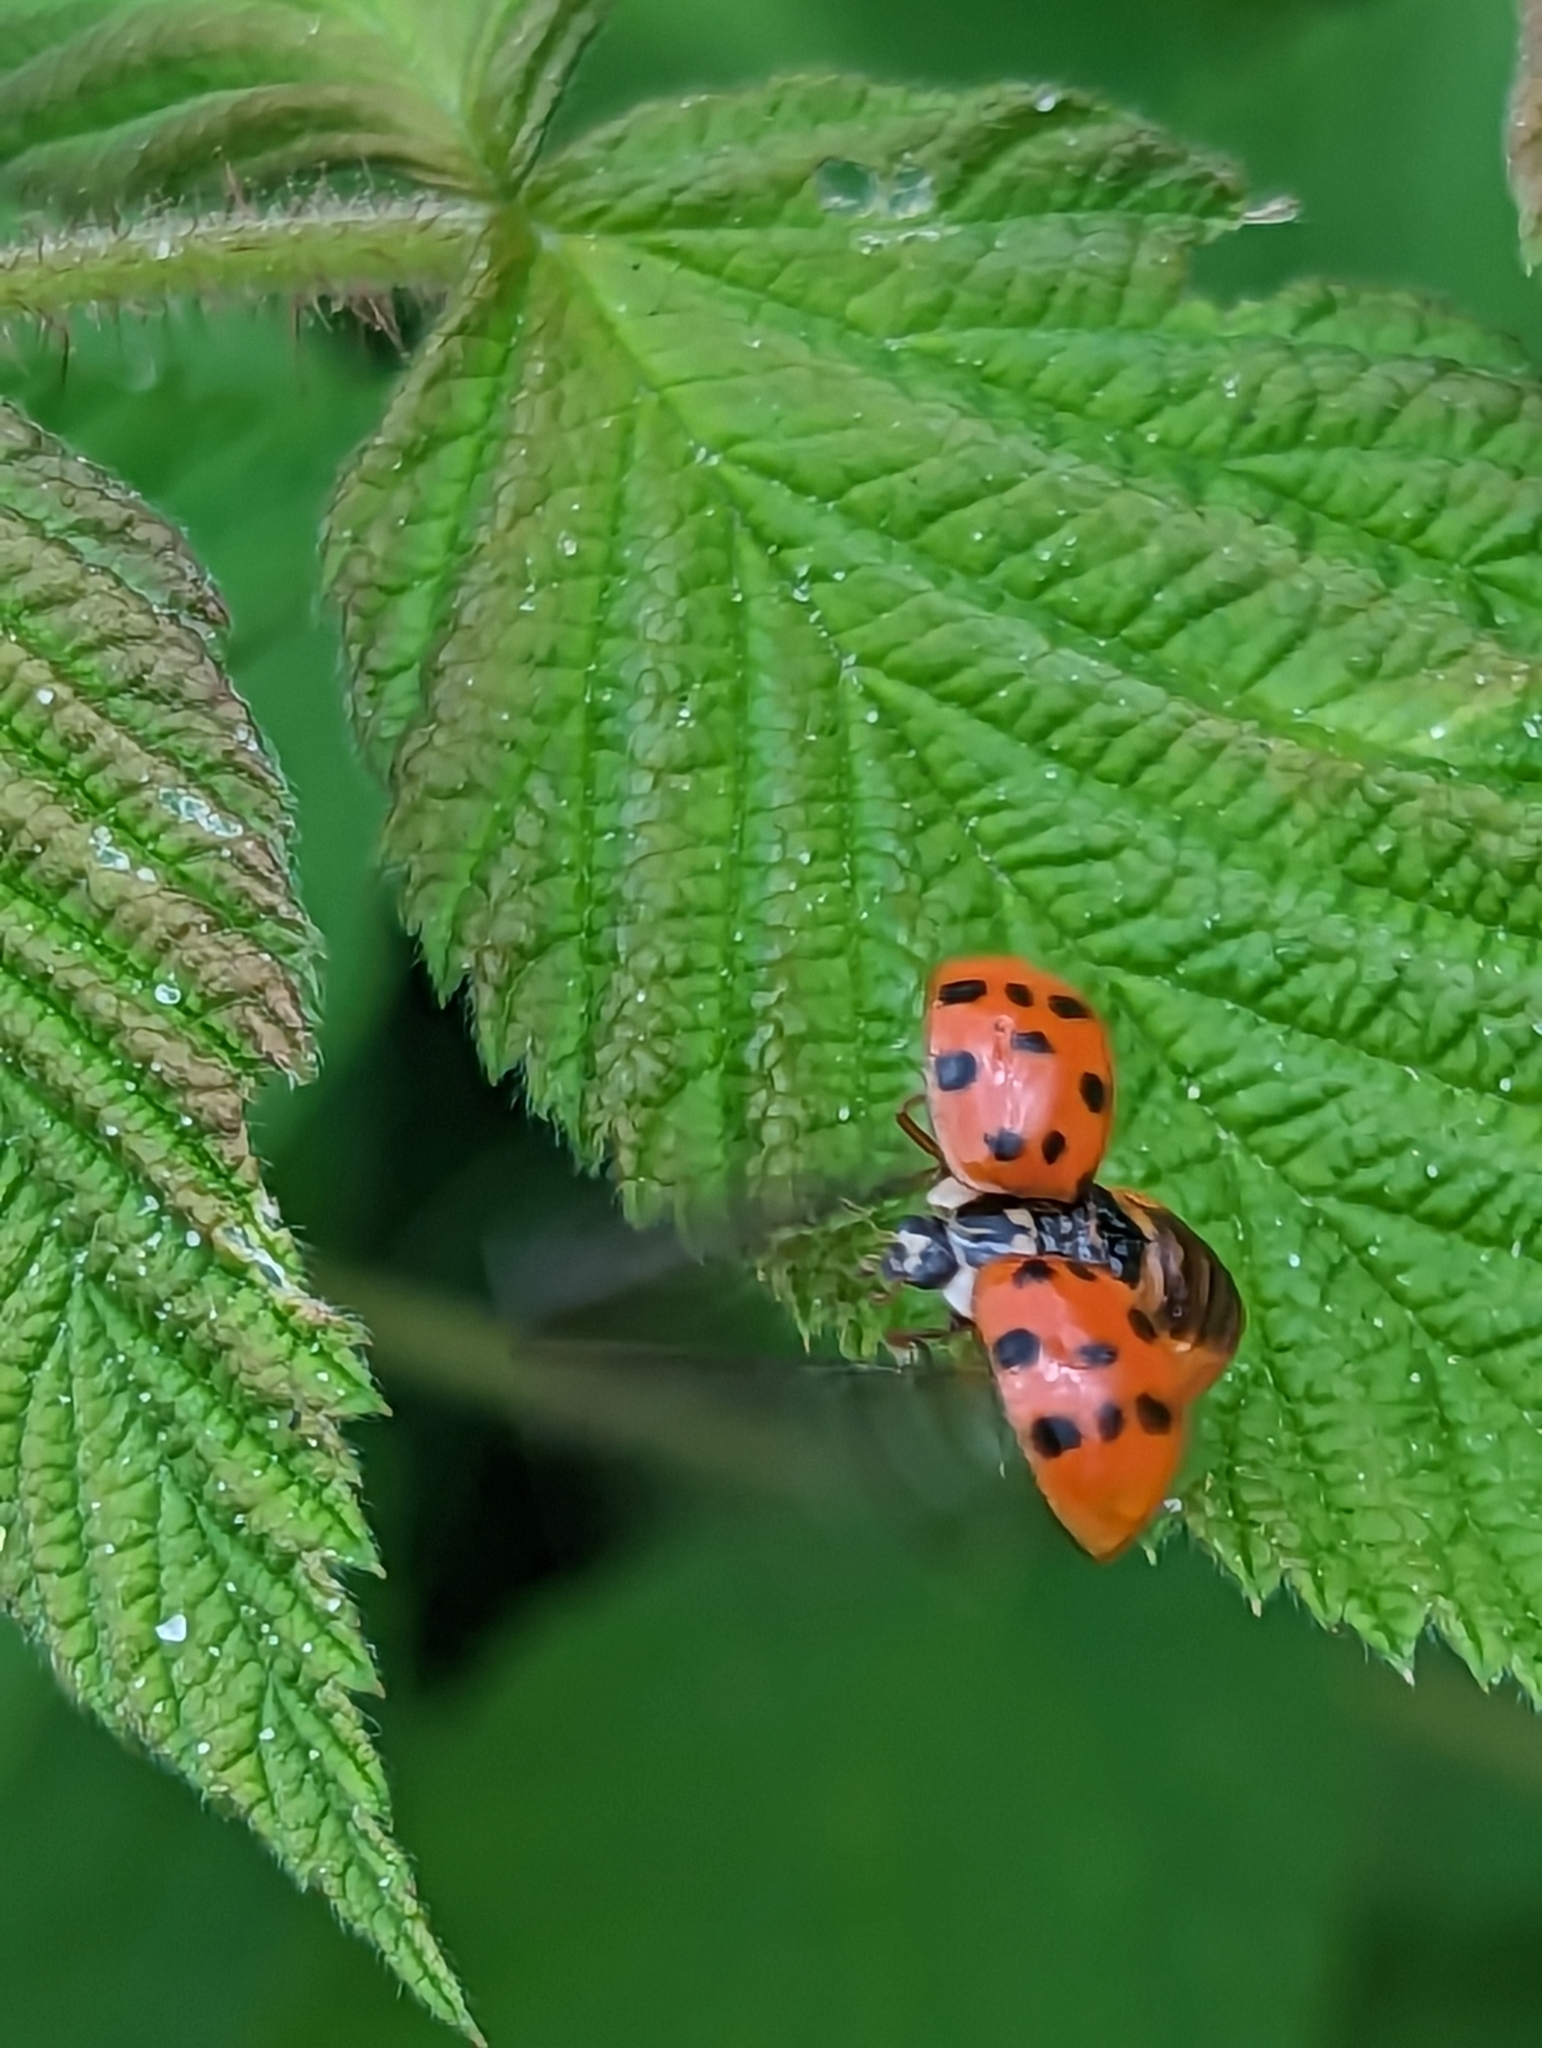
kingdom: Animalia
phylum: Arthropoda
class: Insecta
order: Coleoptera
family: Coccinellidae
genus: Harmonia
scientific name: Harmonia axyridis
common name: Harlequin ladybird
